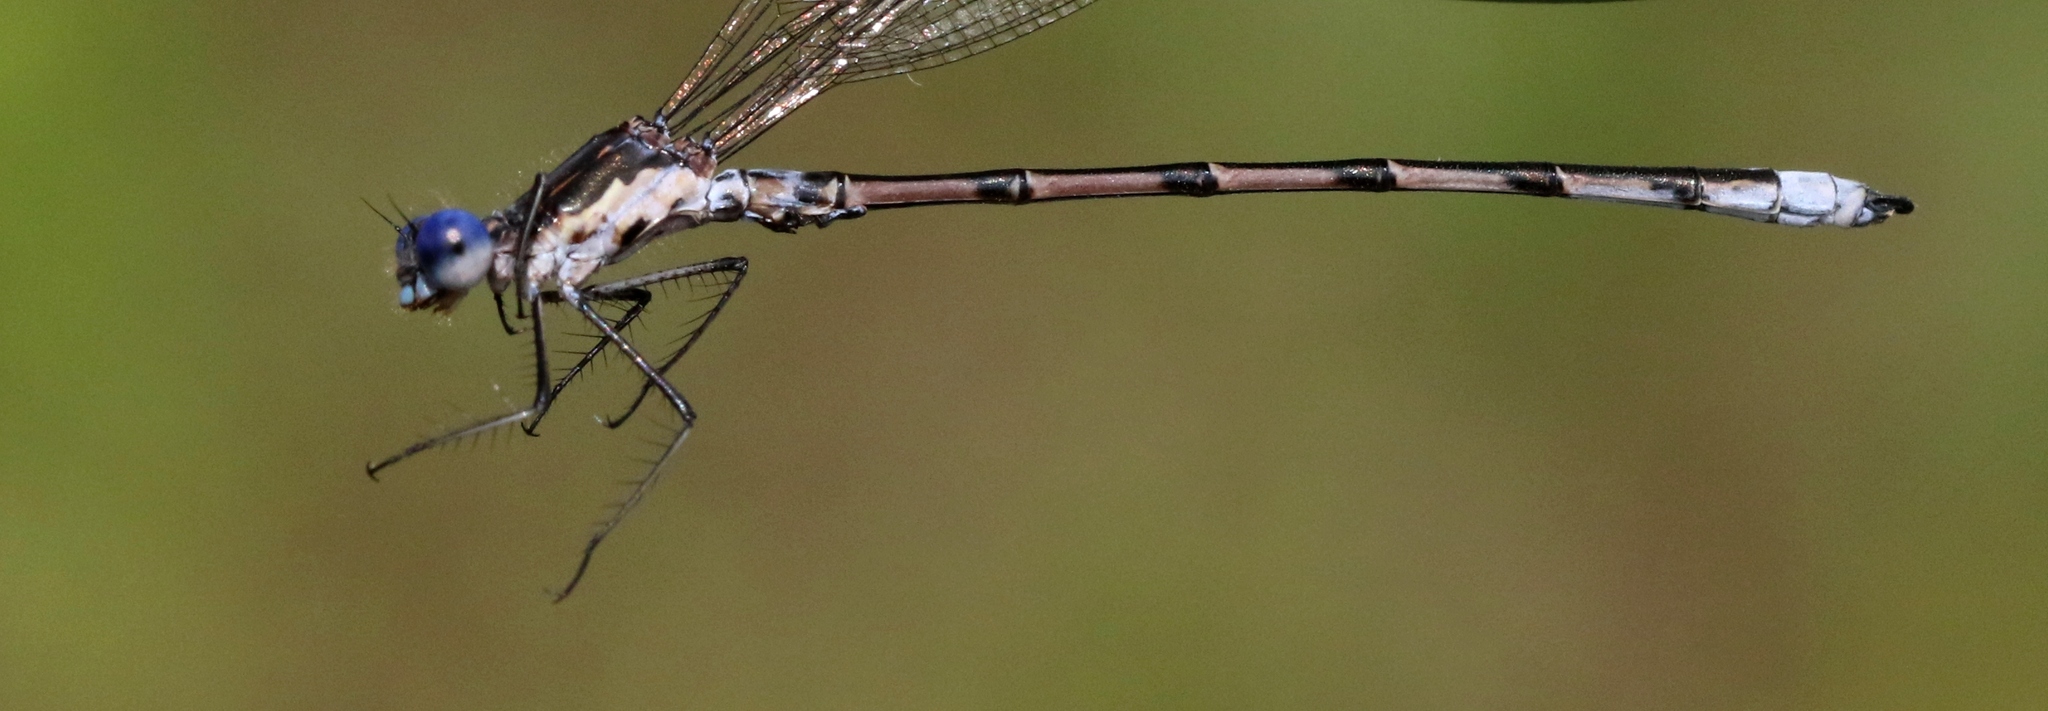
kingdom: Animalia
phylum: Arthropoda
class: Insecta
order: Odonata
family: Lestidae
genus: Lestes
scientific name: Lestes congener
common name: Spotted spreadwing
